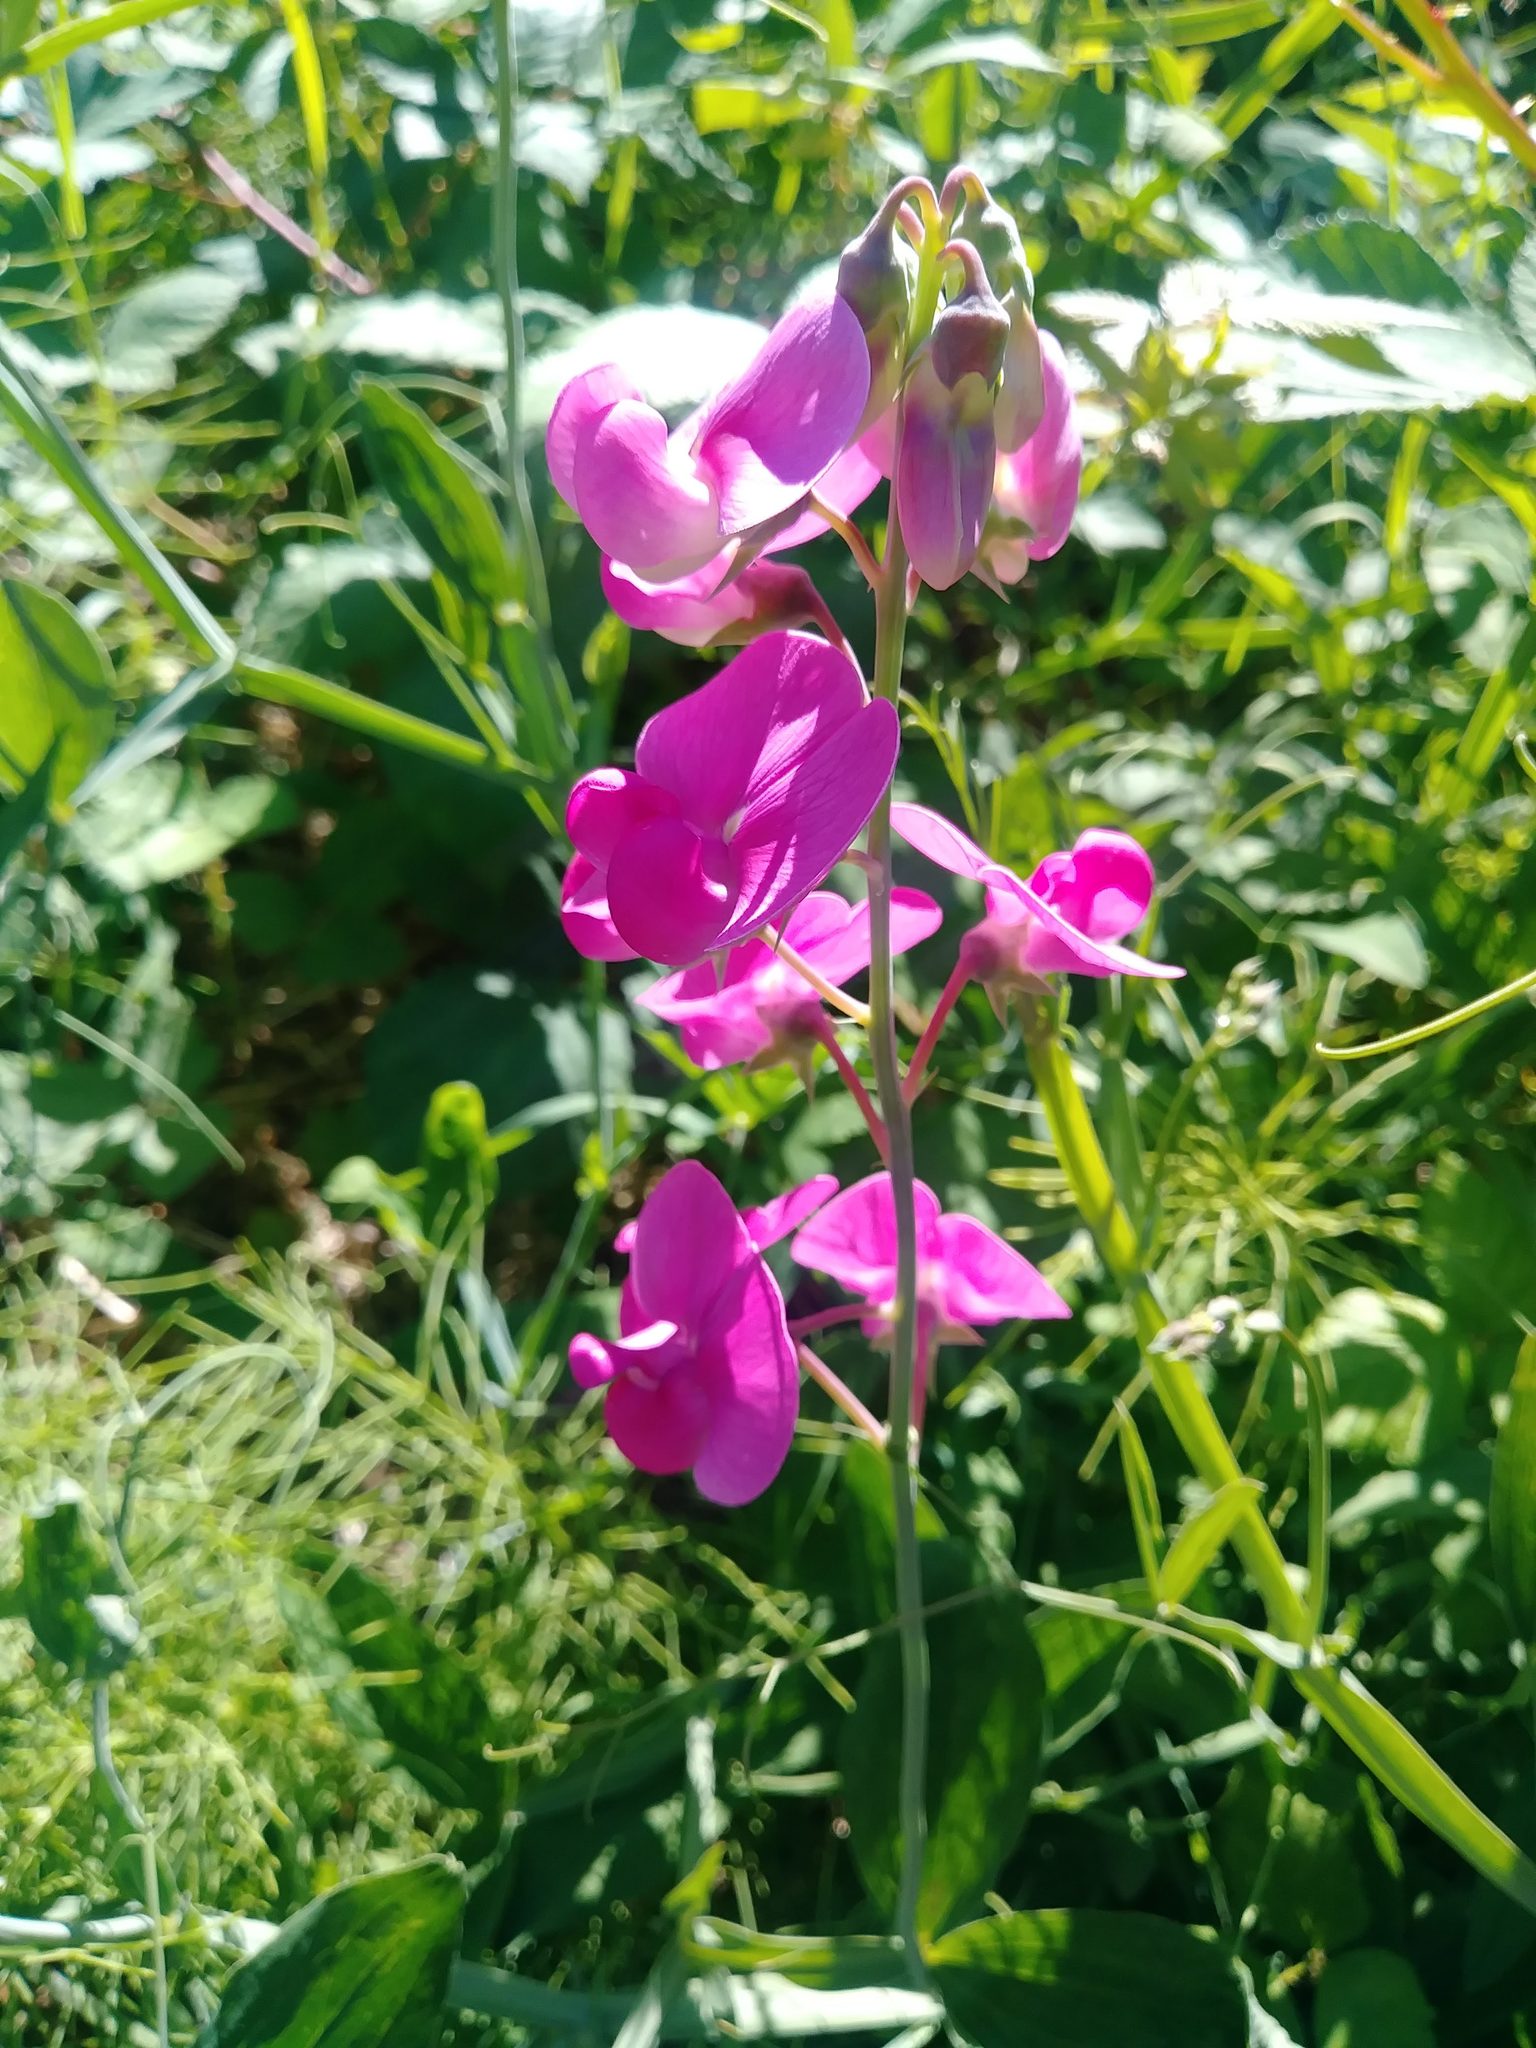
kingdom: Plantae
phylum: Tracheophyta
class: Magnoliopsida
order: Fabales
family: Fabaceae
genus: Lathyrus
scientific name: Lathyrus latifolius
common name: Perennial pea
